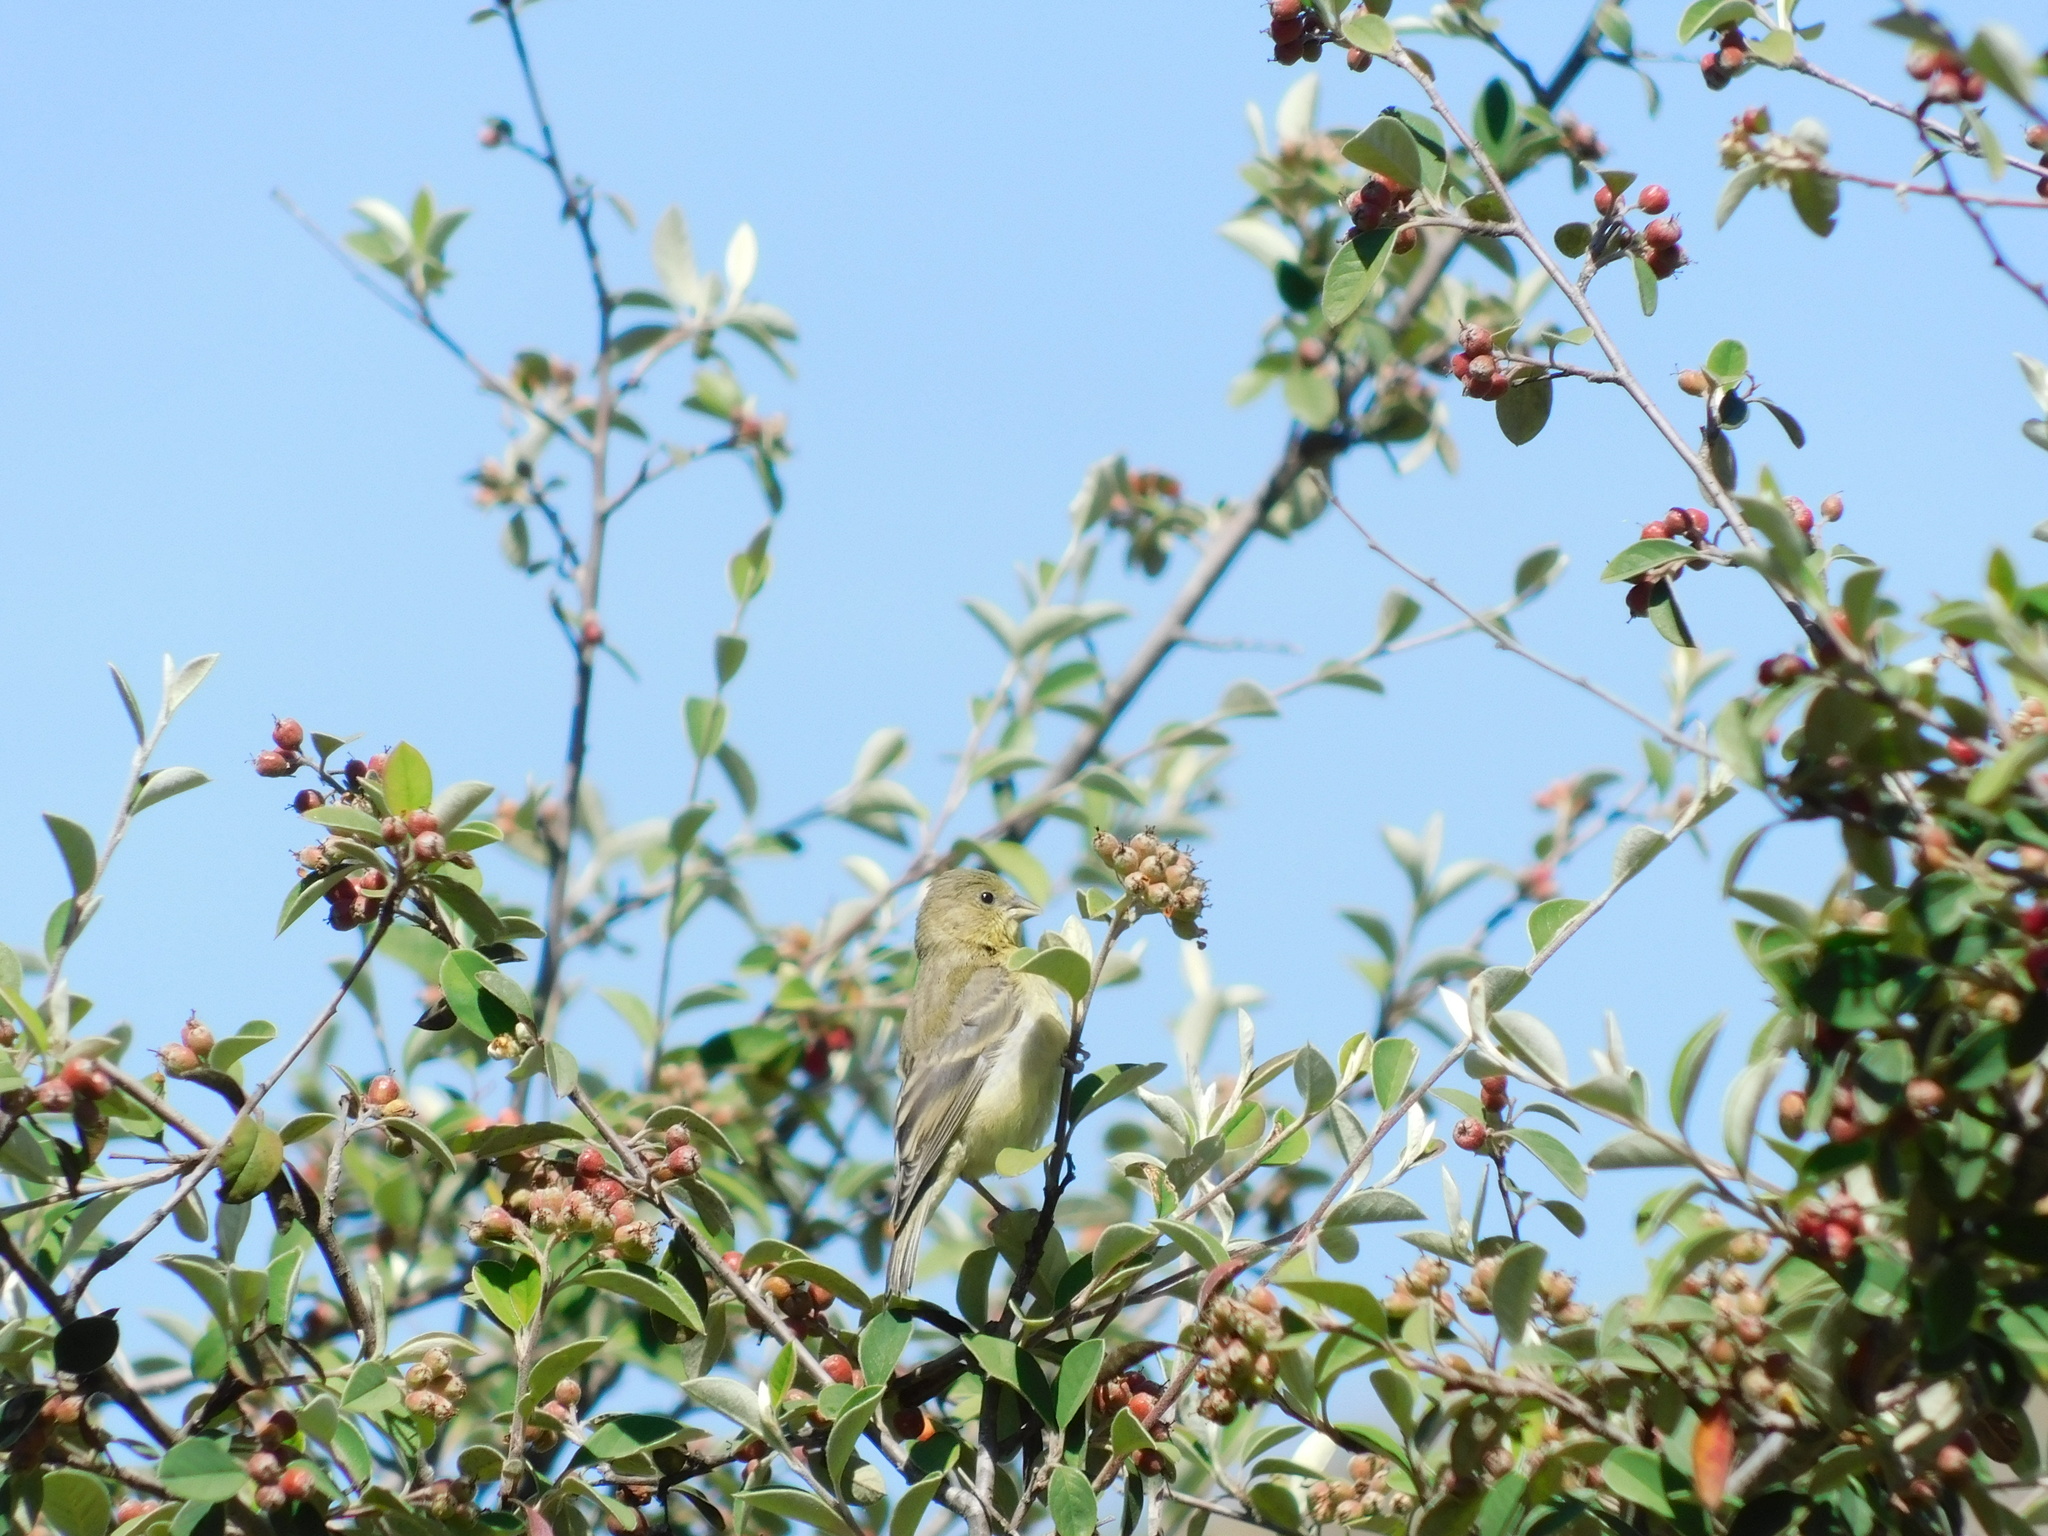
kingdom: Animalia
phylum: Chordata
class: Aves
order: Passeriformes
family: Fringillidae
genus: Spinus
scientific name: Spinus psaltria
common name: Lesser goldfinch
